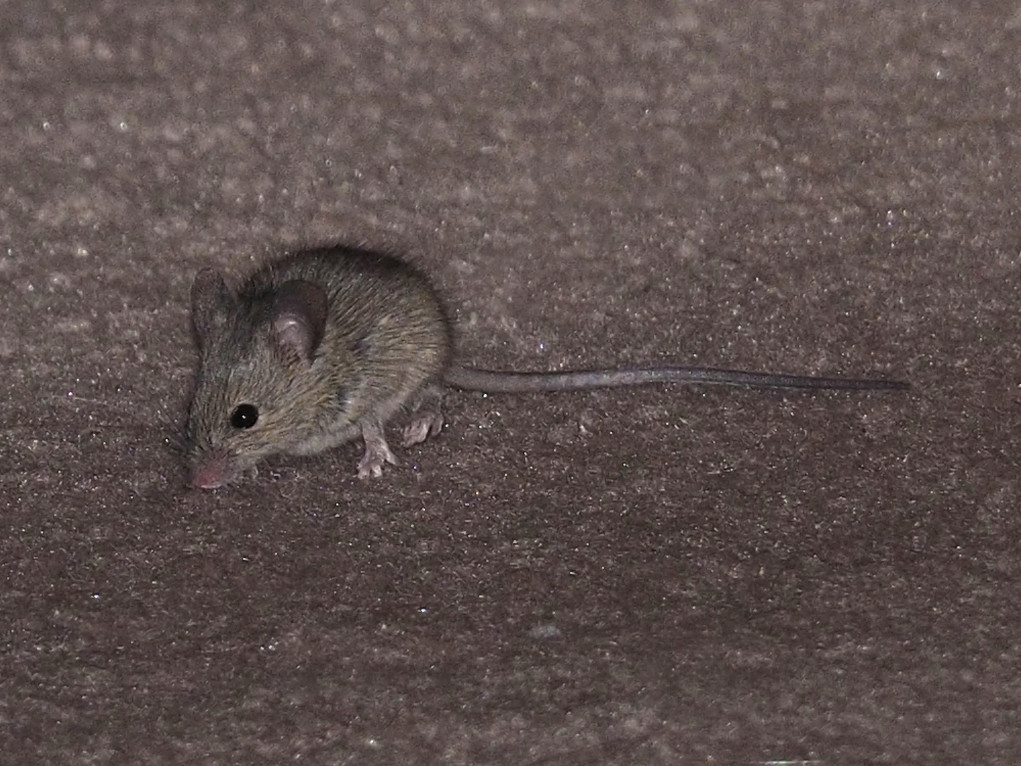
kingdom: Animalia
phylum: Chordata
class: Mammalia
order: Rodentia
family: Muridae
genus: Mus
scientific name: Mus musculus
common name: House mouse
